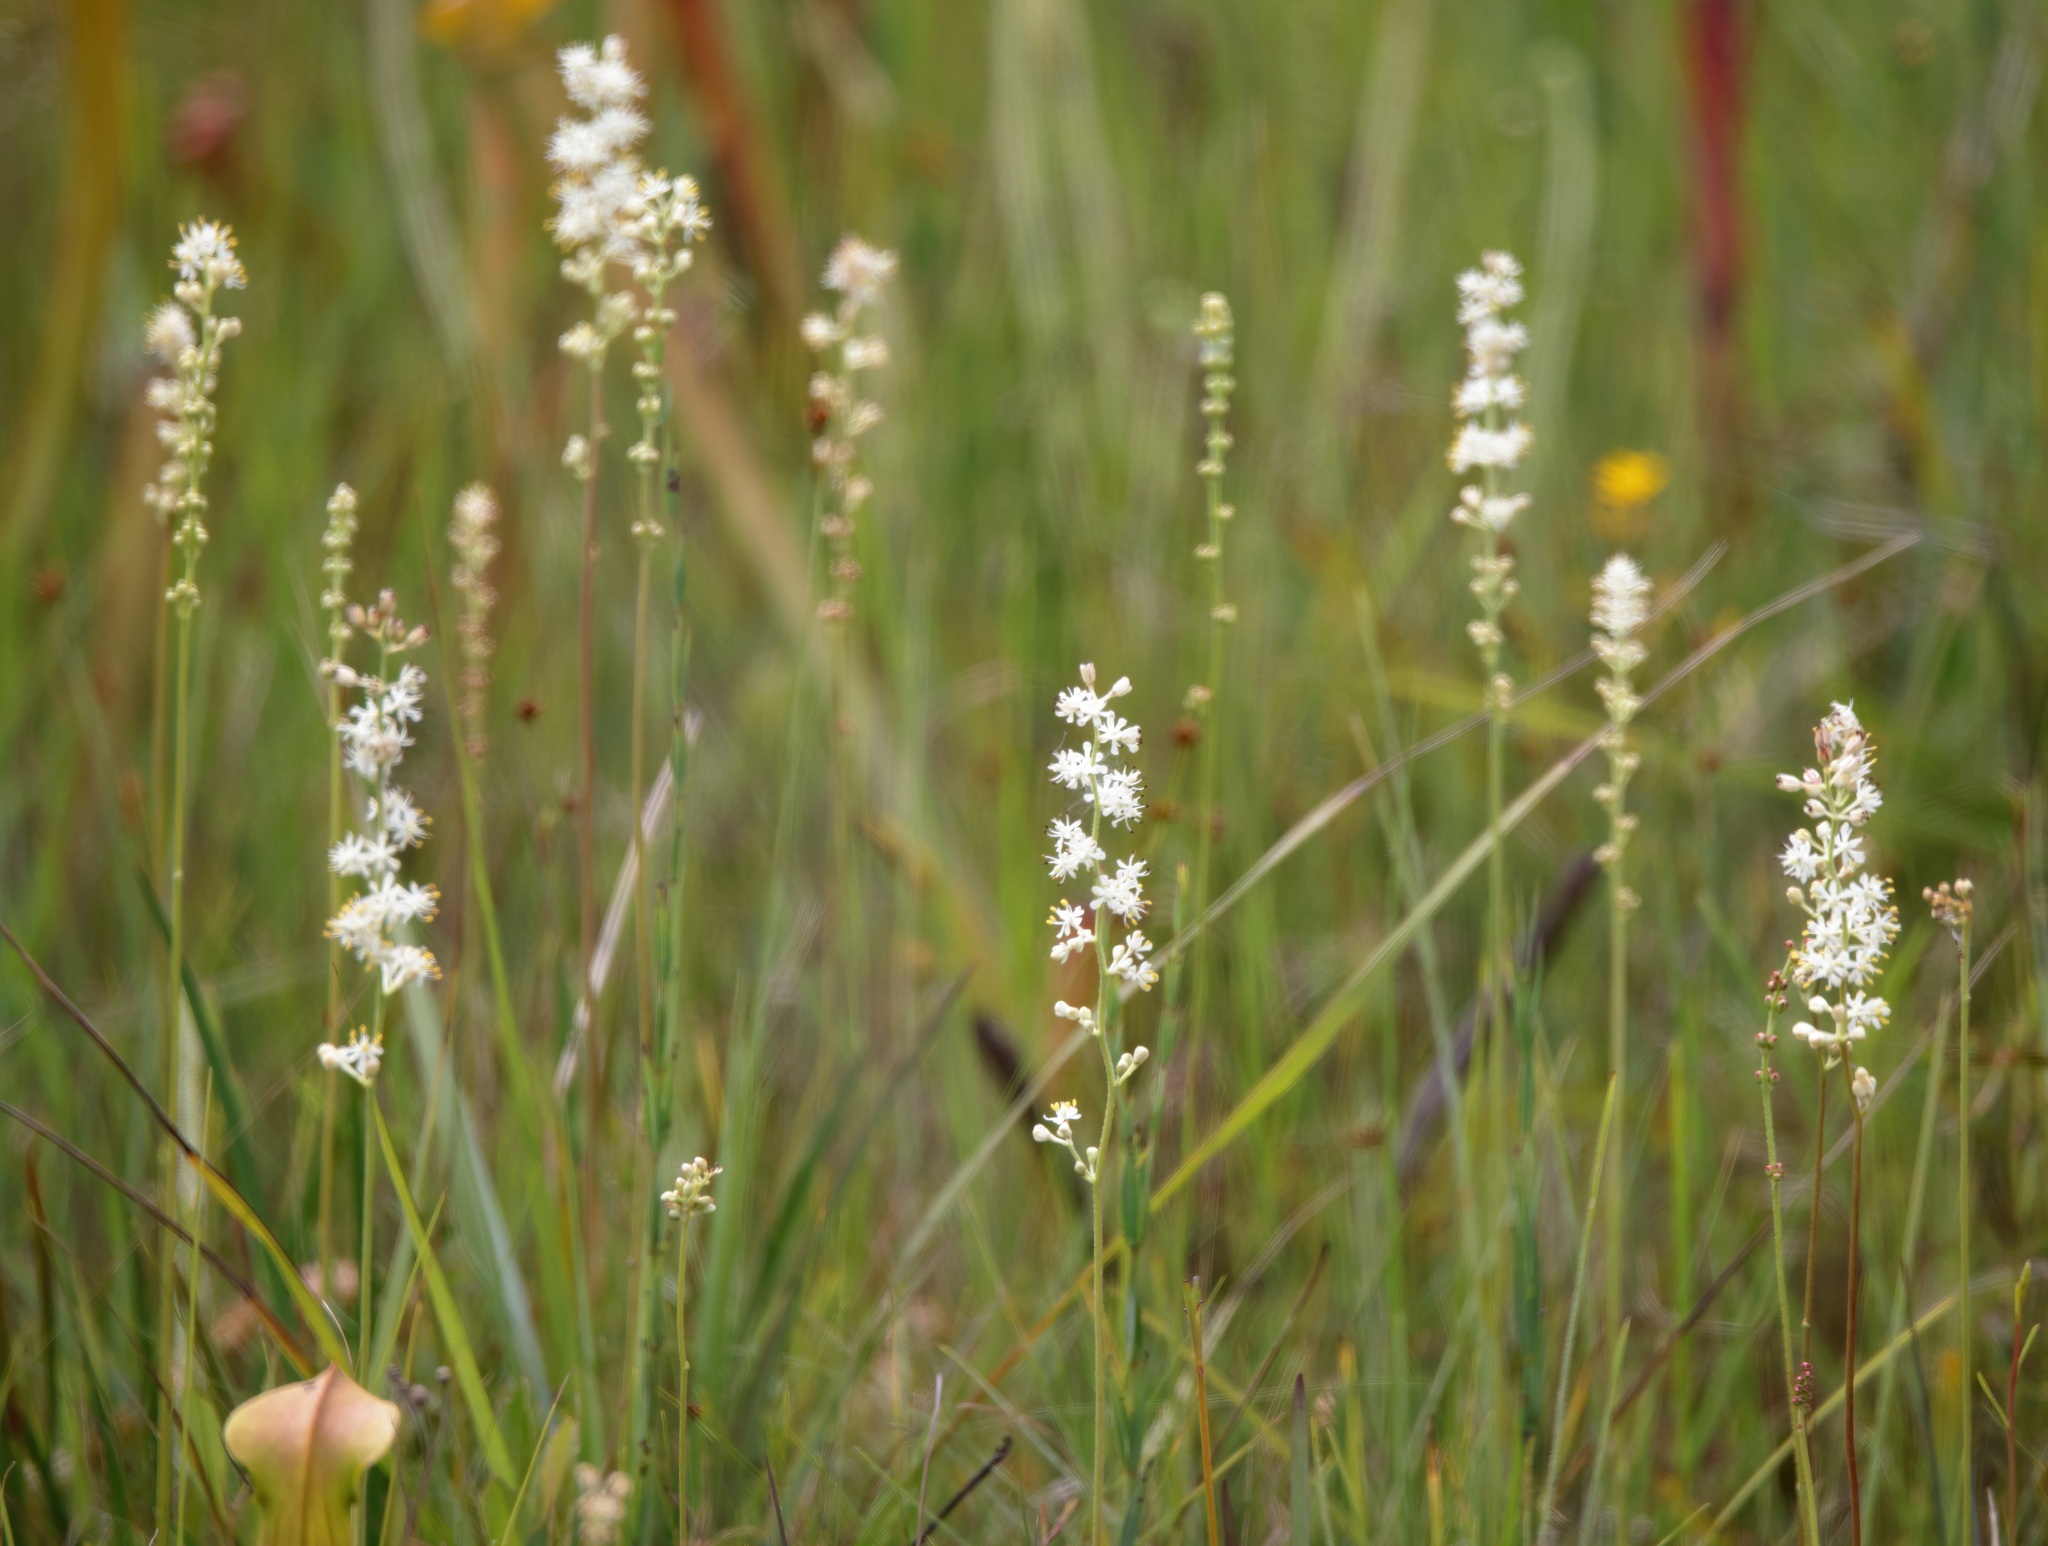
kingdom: Plantae
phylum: Tracheophyta
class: Liliopsida
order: Alismatales
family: Tofieldiaceae
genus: Triantha
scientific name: Triantha racemosa
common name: Coastal false asphodel
